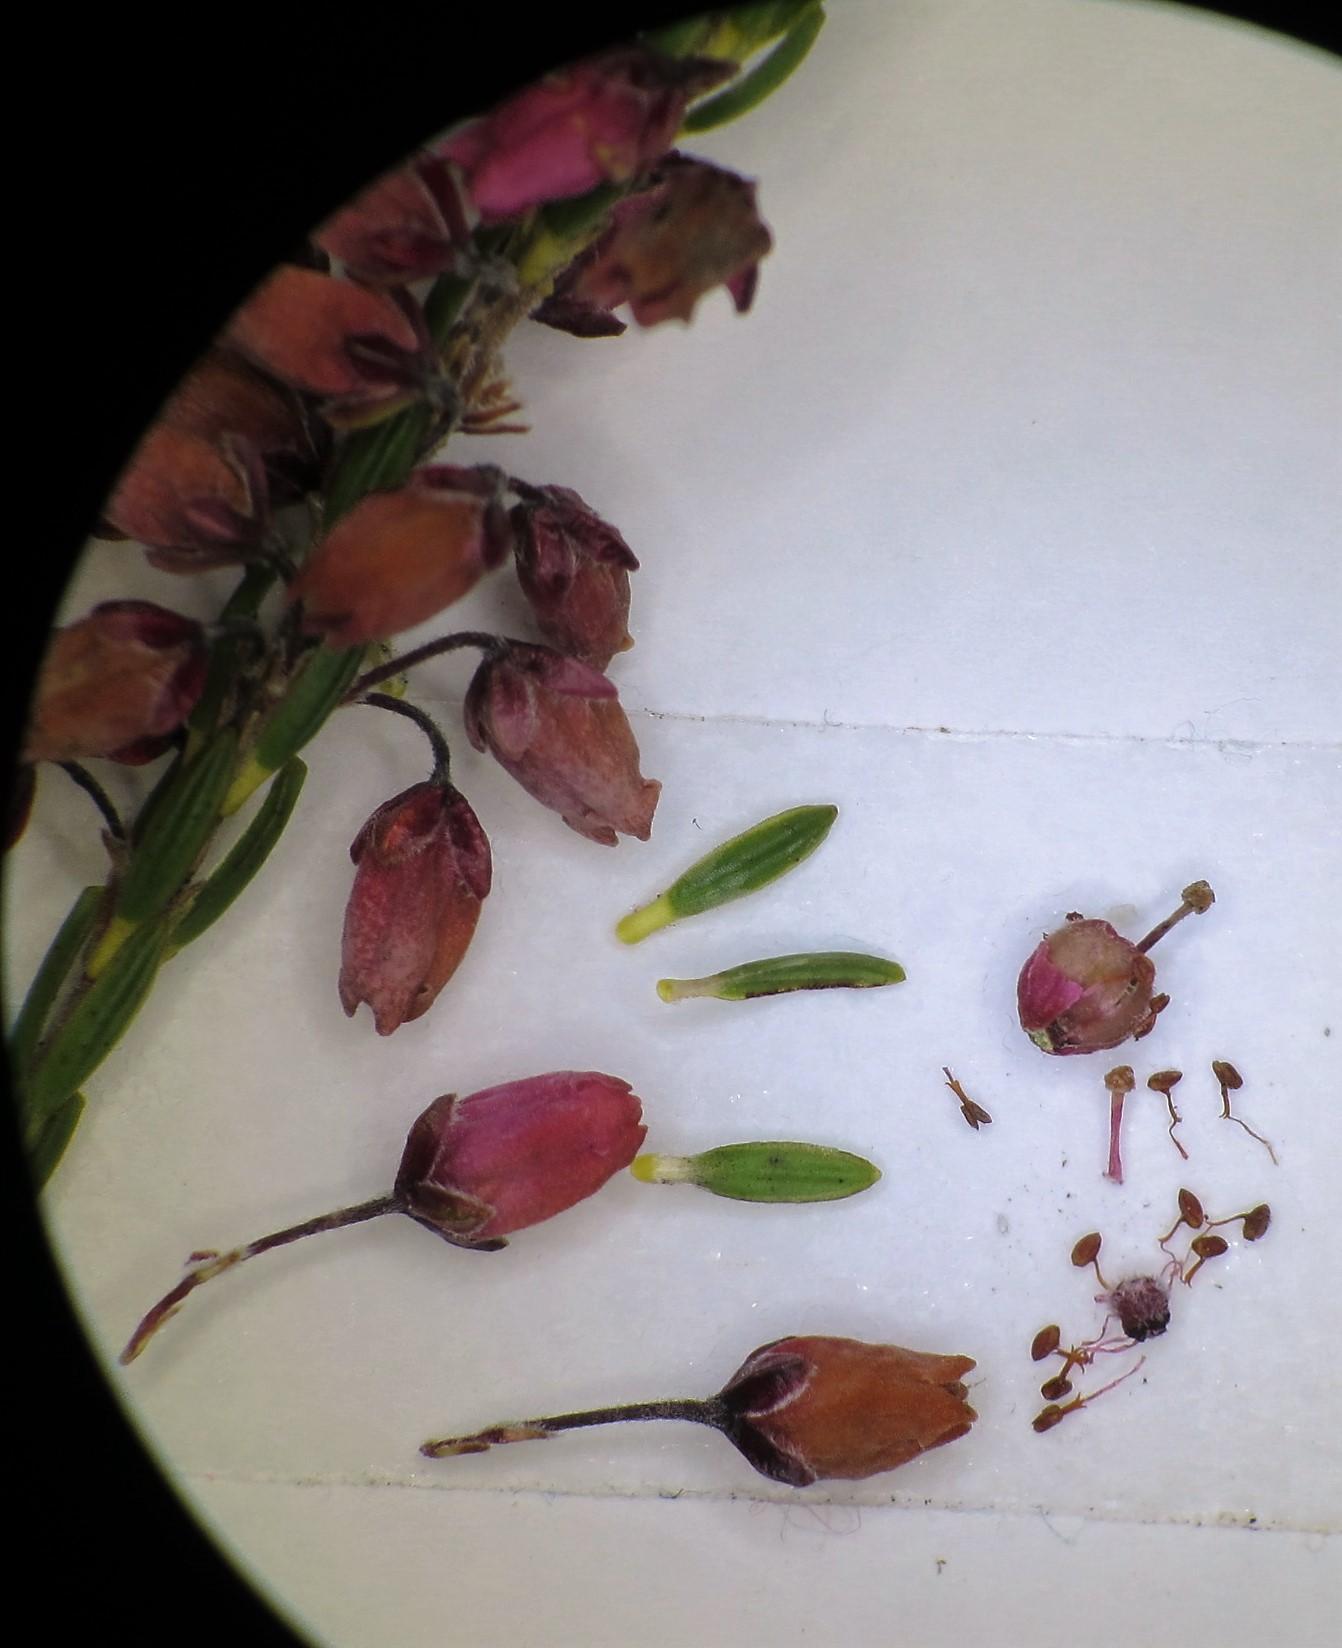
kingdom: Plantae
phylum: Tracheophyta
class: Magnoliopsida
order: Ericales
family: Ericaceae
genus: Erica
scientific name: Erica pulchella
